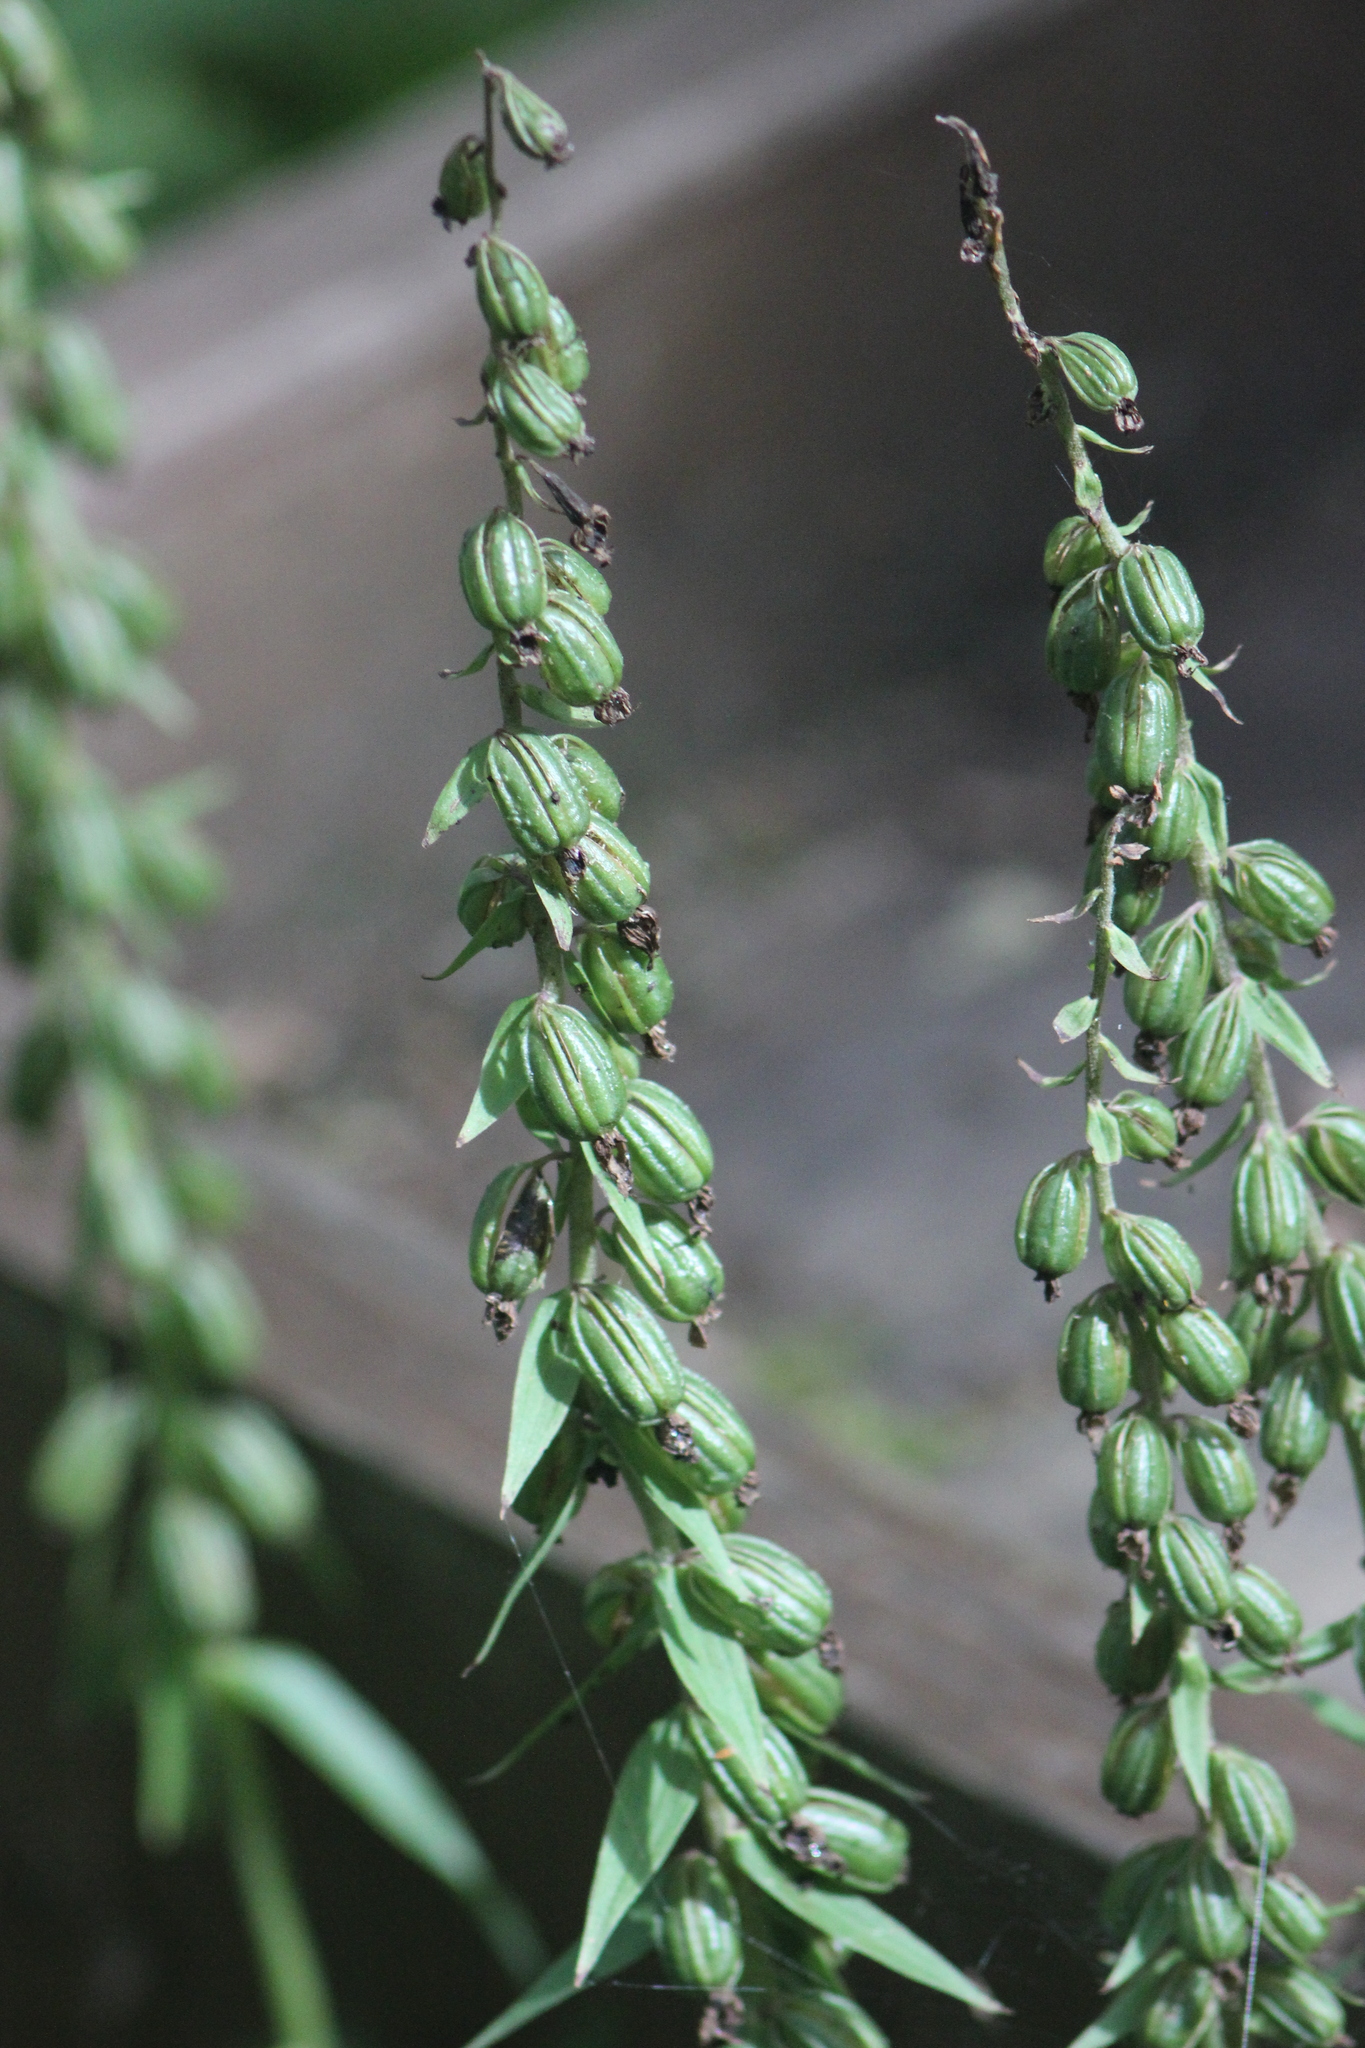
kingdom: Plantae
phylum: Tracheophyta
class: Liliopsida
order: Asparagales
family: Orchidaceae
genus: Epipactis
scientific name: Epipactis helleborine
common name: Broad-leaved helleborine
